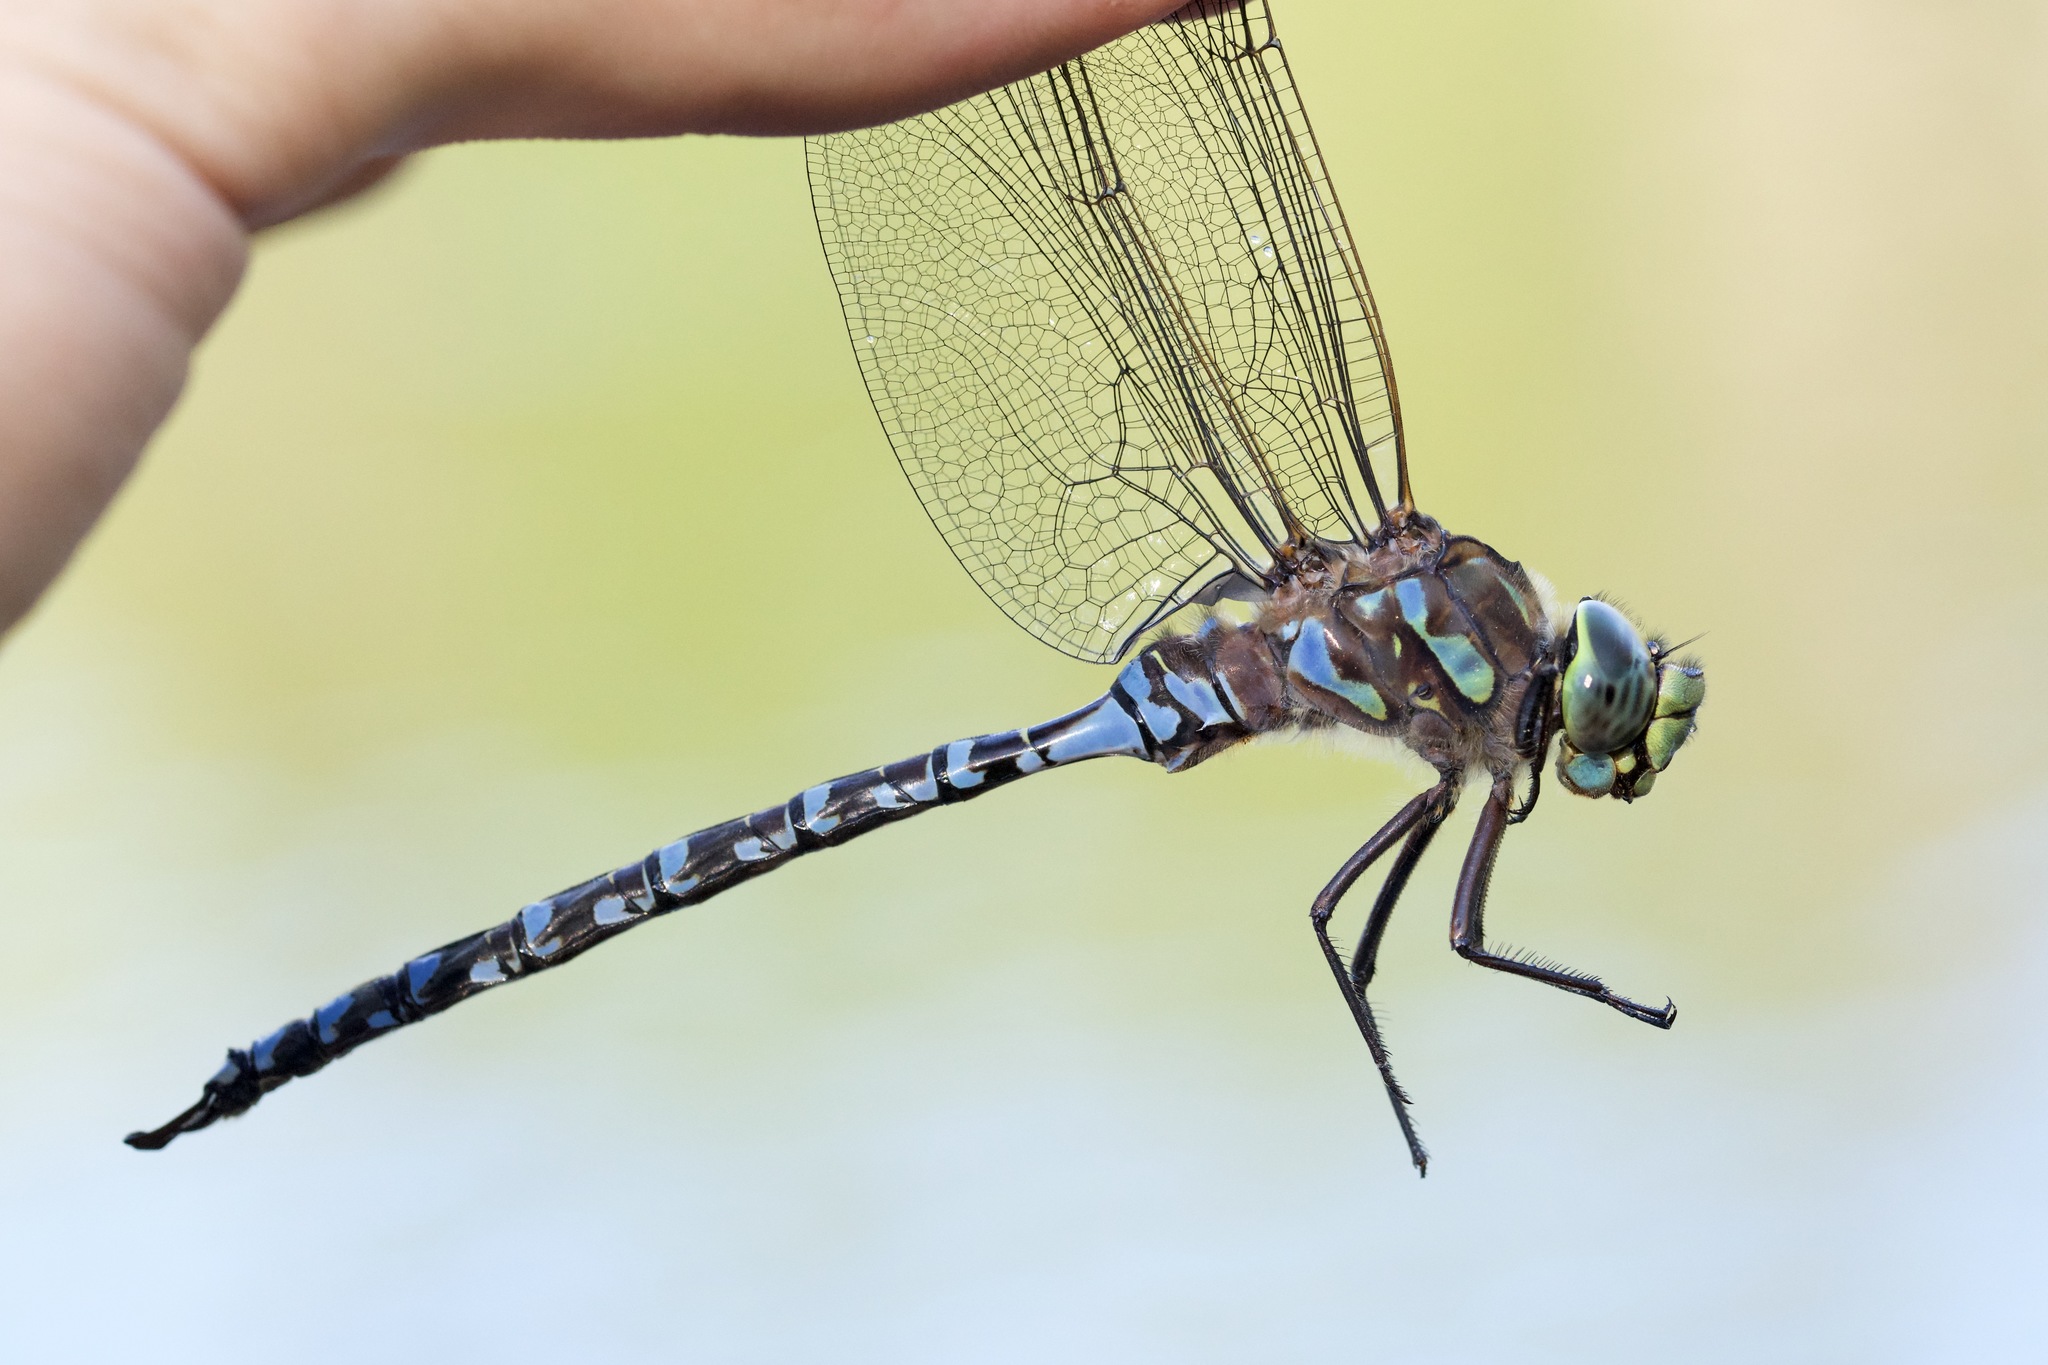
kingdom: Animalia
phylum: Arthropoda
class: Insecta
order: Odonata
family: Aeshnidae
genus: Aeshna
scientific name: Aeshna eremita
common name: Lake darner
